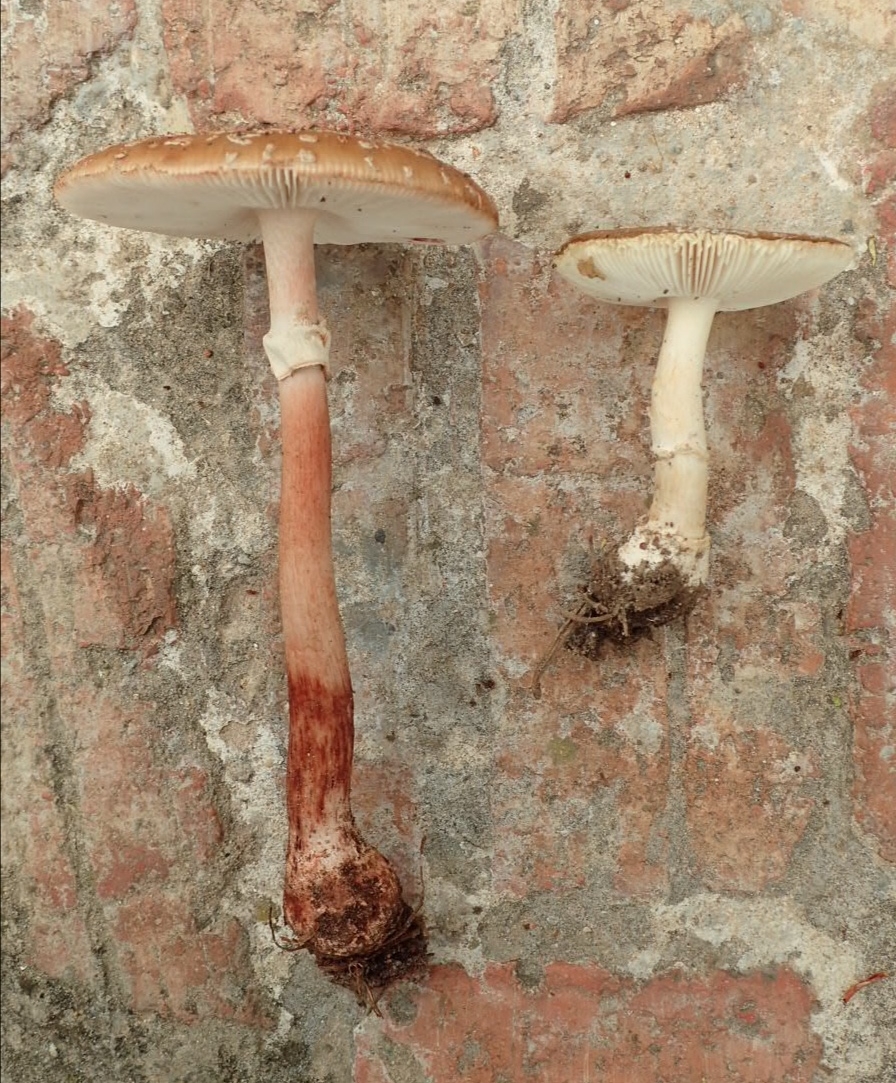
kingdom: Fungi
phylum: Basidiomycota
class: Agaricomycetes
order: Agaricales
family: Amanitaceae
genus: Amanita
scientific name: Amanita rubescens
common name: Blusher
